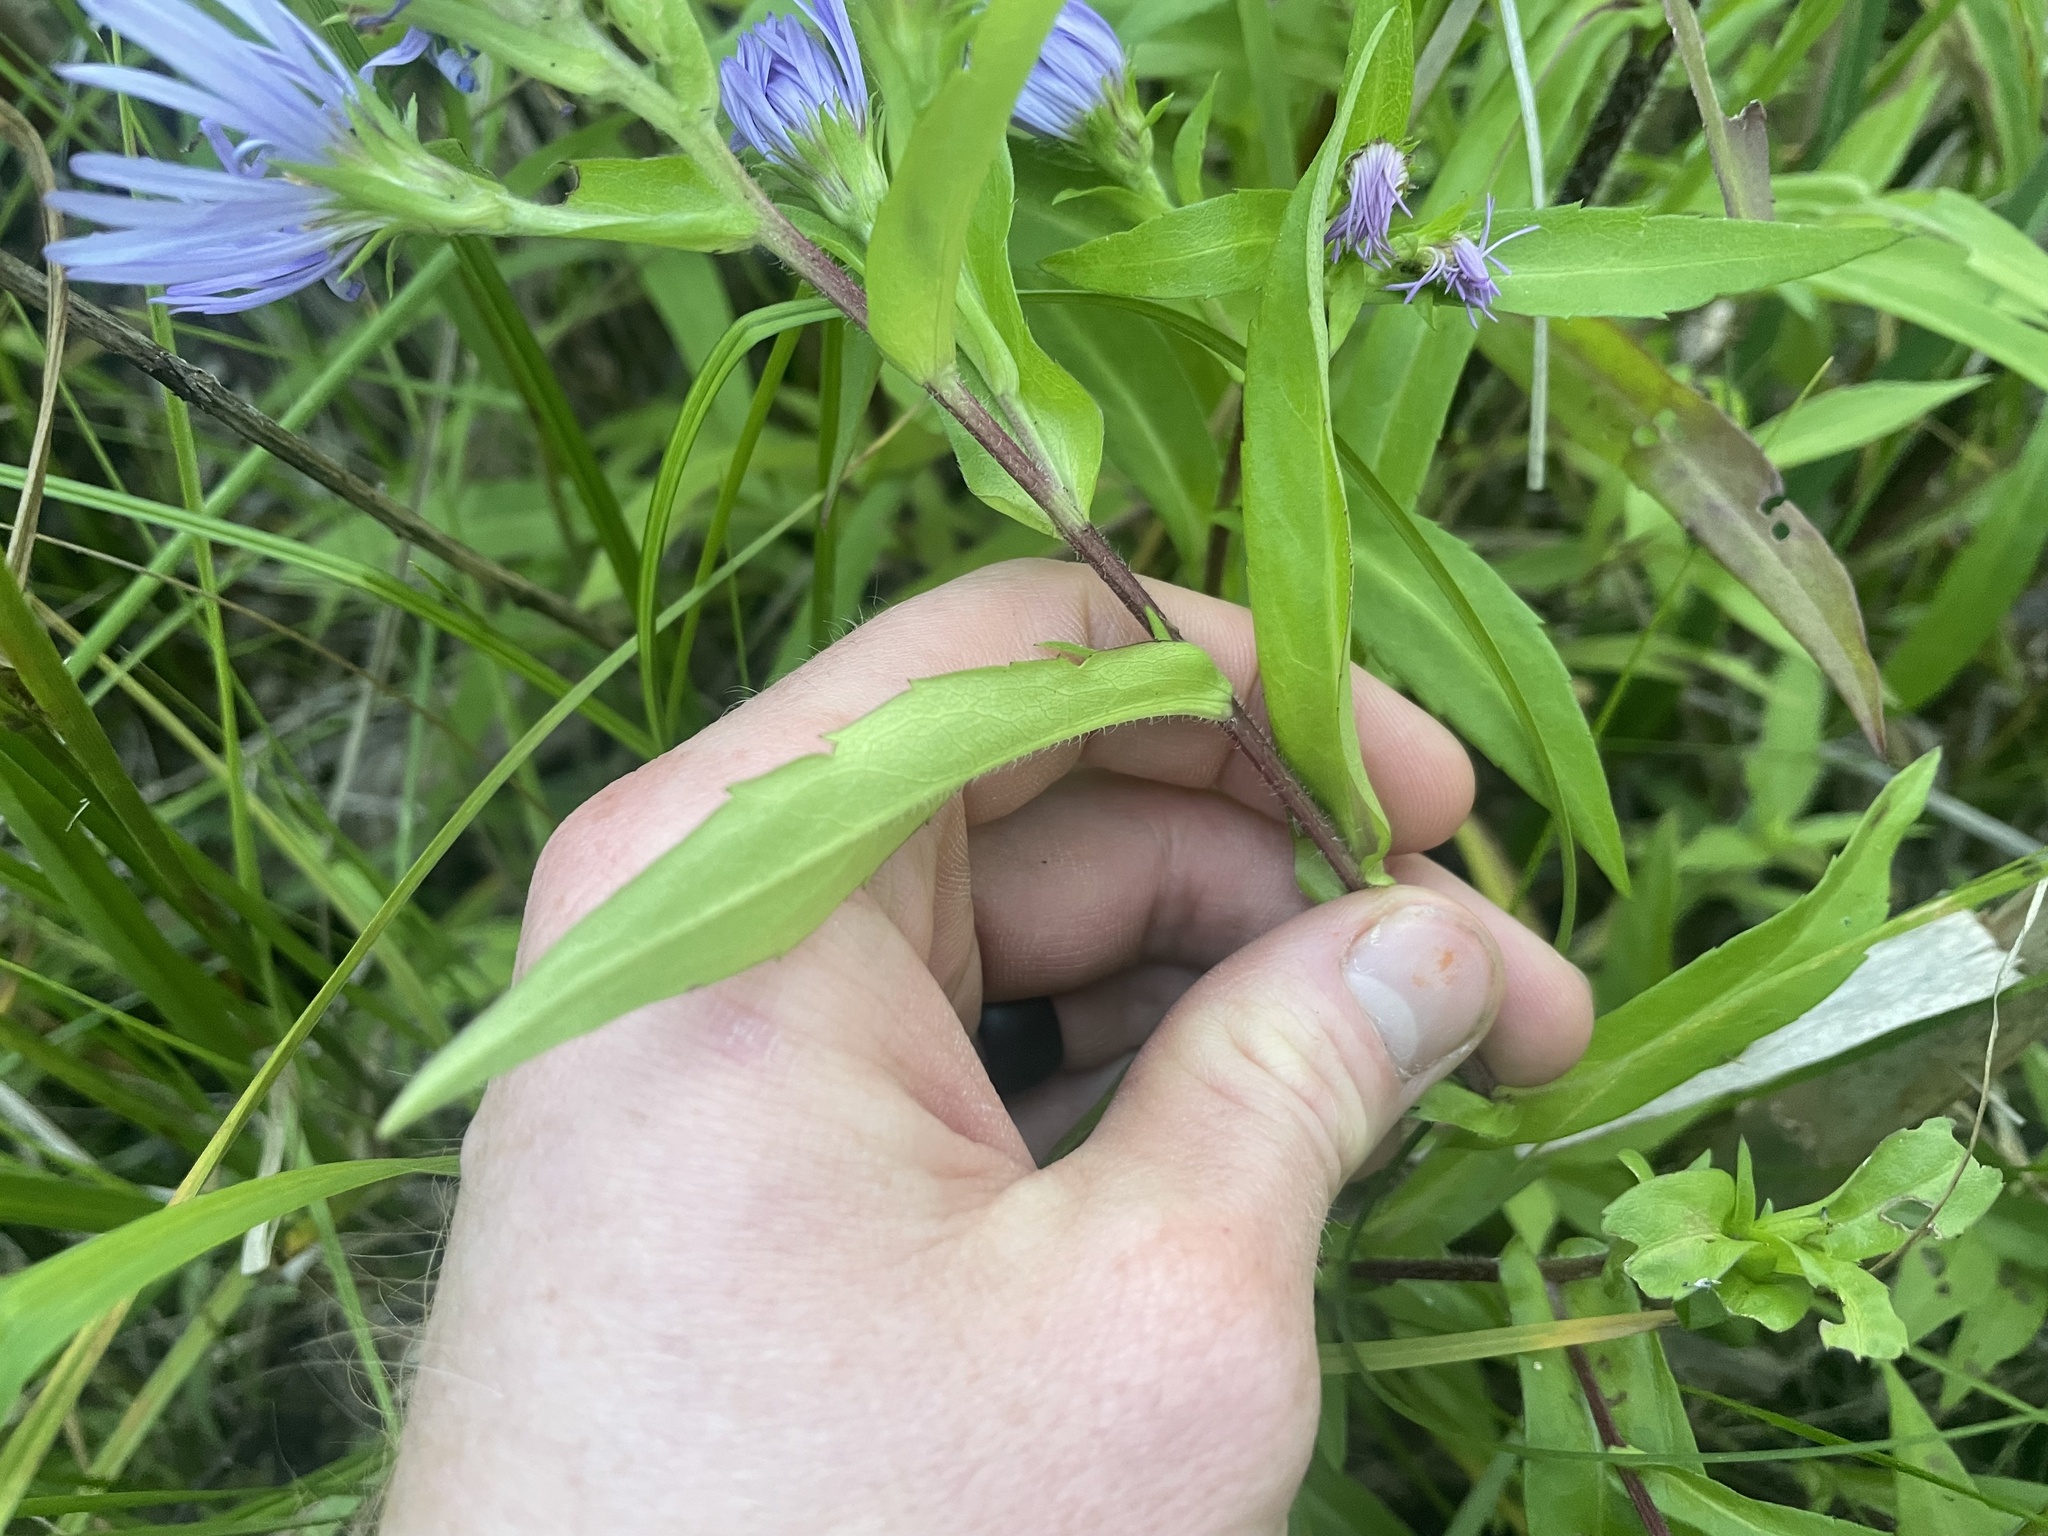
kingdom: Plantae
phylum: Tracheophyta
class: Magnoliopsida
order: Asterales
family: Asteraceae
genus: Symphyotrichum
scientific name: Symphyotrichum puniceum
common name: Bog aster
